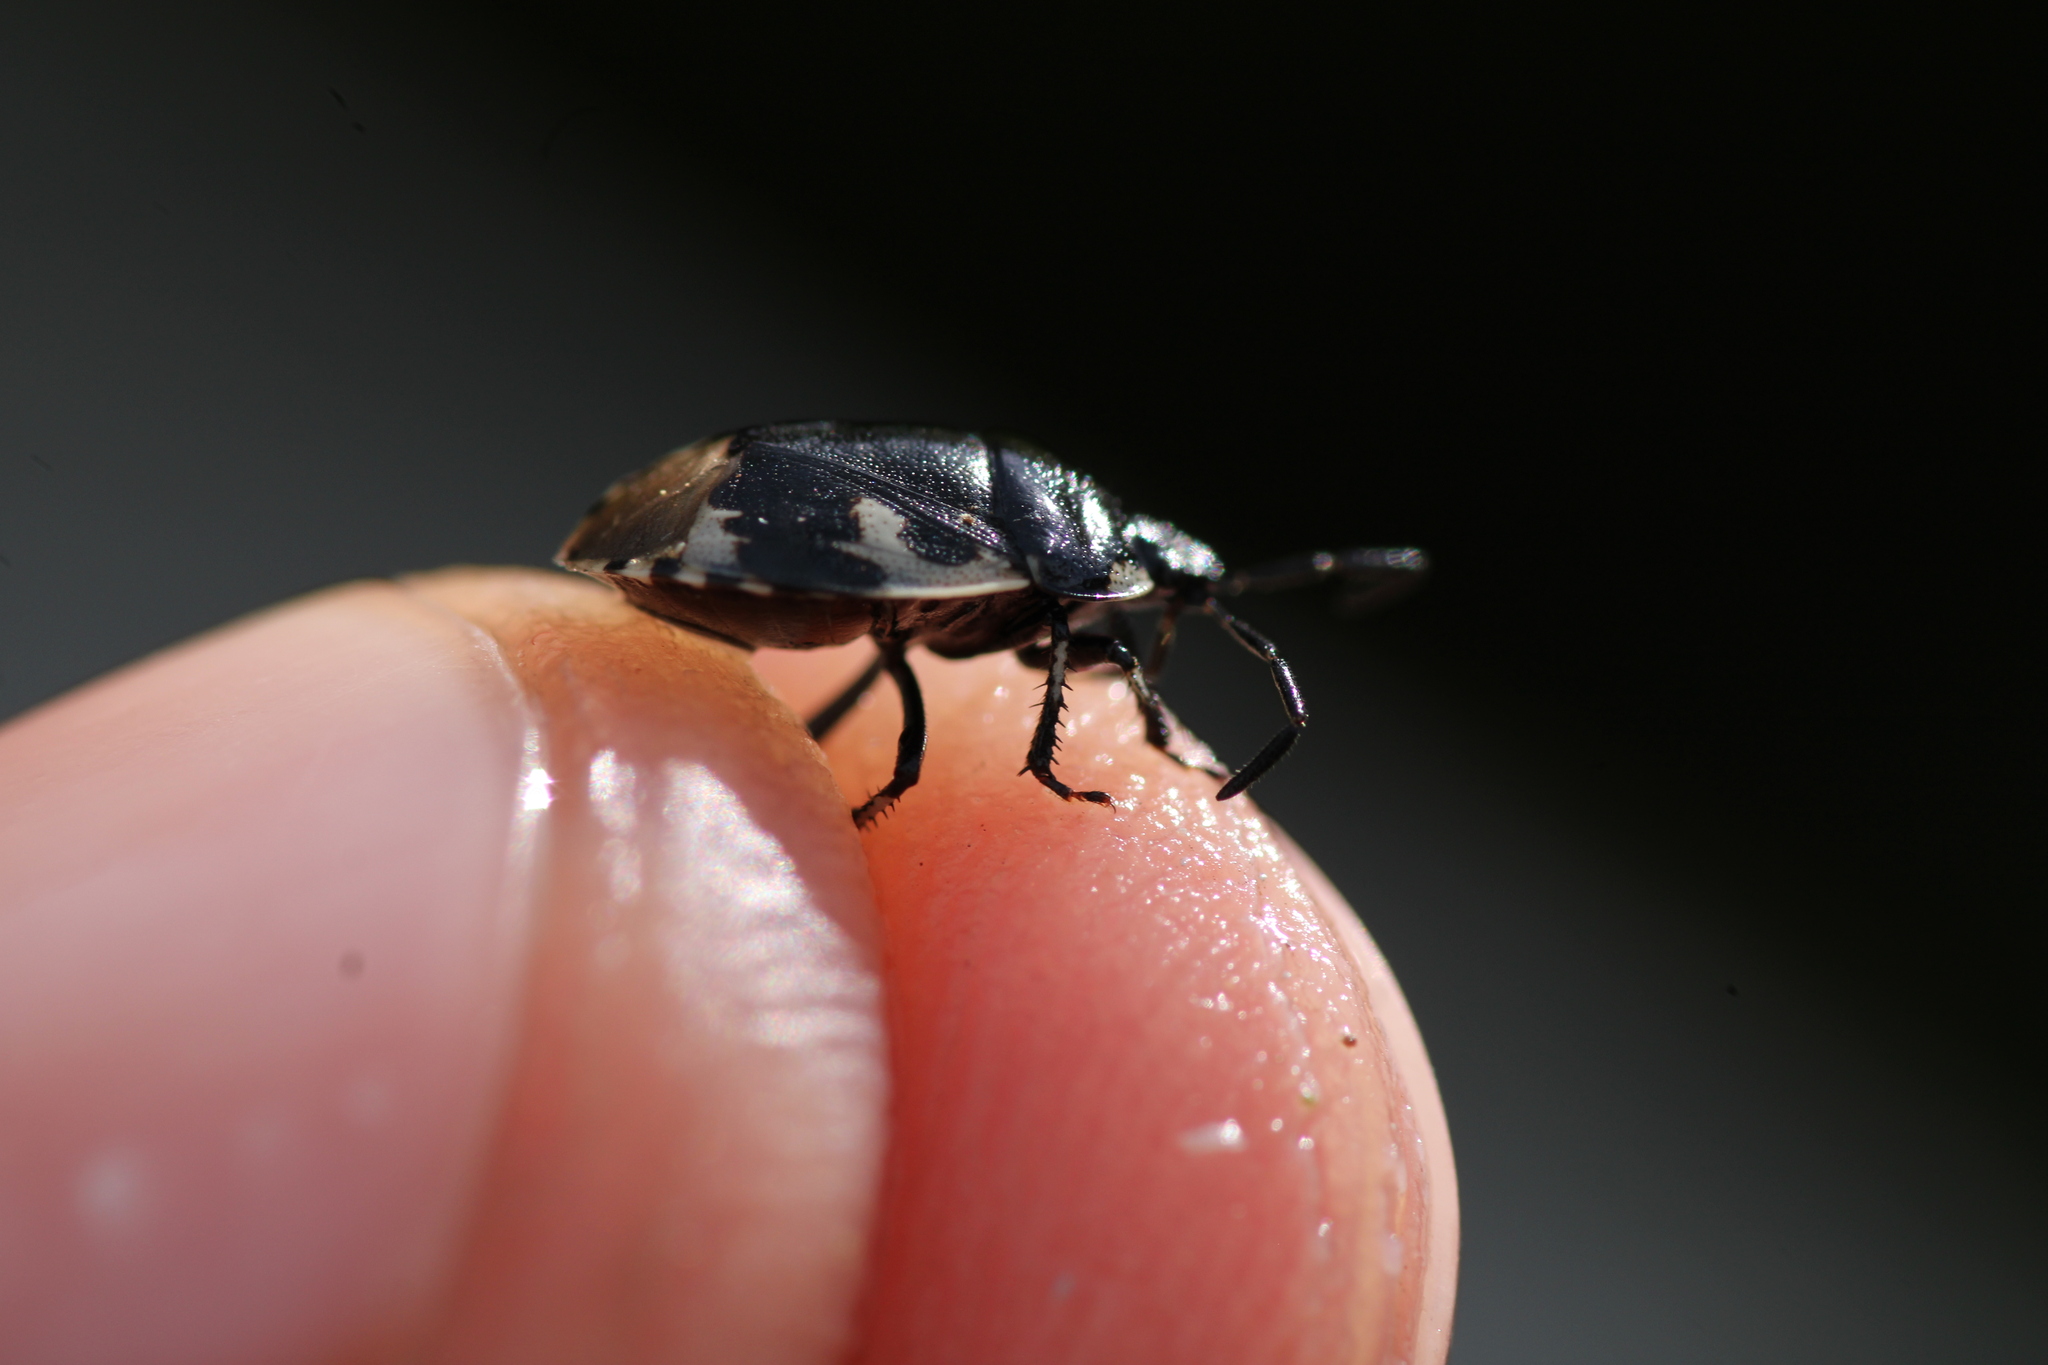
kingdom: Animalia
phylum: Arthropoda
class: Insecta
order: Hemiptera
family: Cydnidae
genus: Tritomegas
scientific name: Tritomegas bicolor
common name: Pied shieldbug
